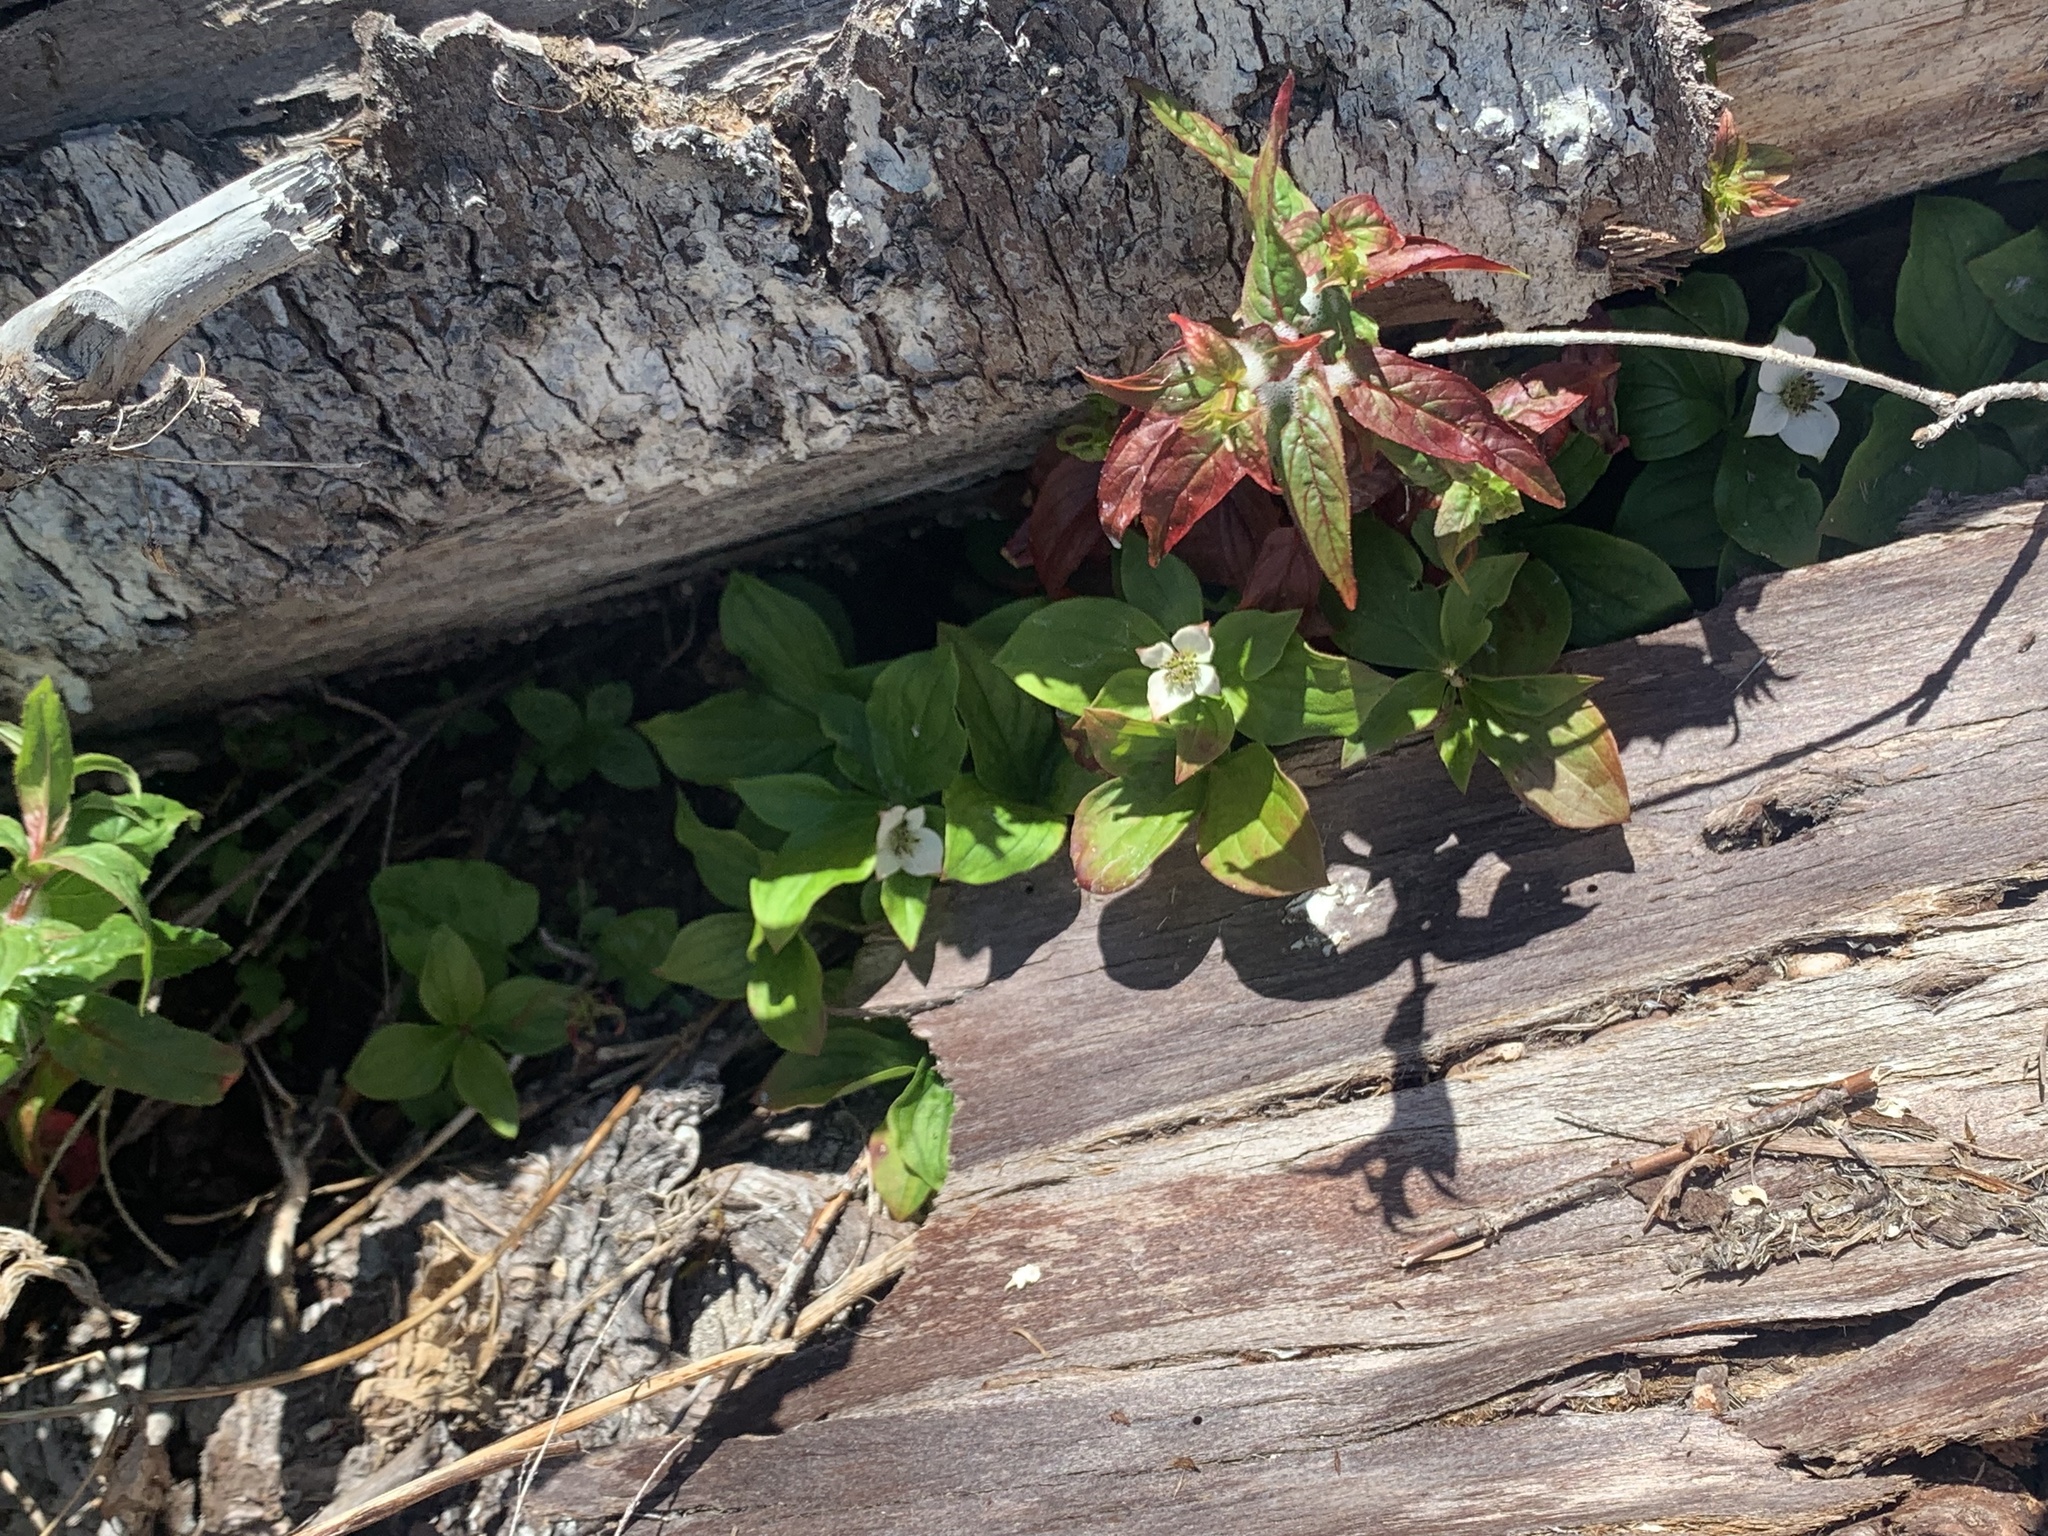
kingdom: Plantae
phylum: Tracheophyta
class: Magnoliopsida
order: Cornales
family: Cornaceae
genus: Cornus
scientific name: Cornus unalaschkensis
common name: Alaska bunchberry
